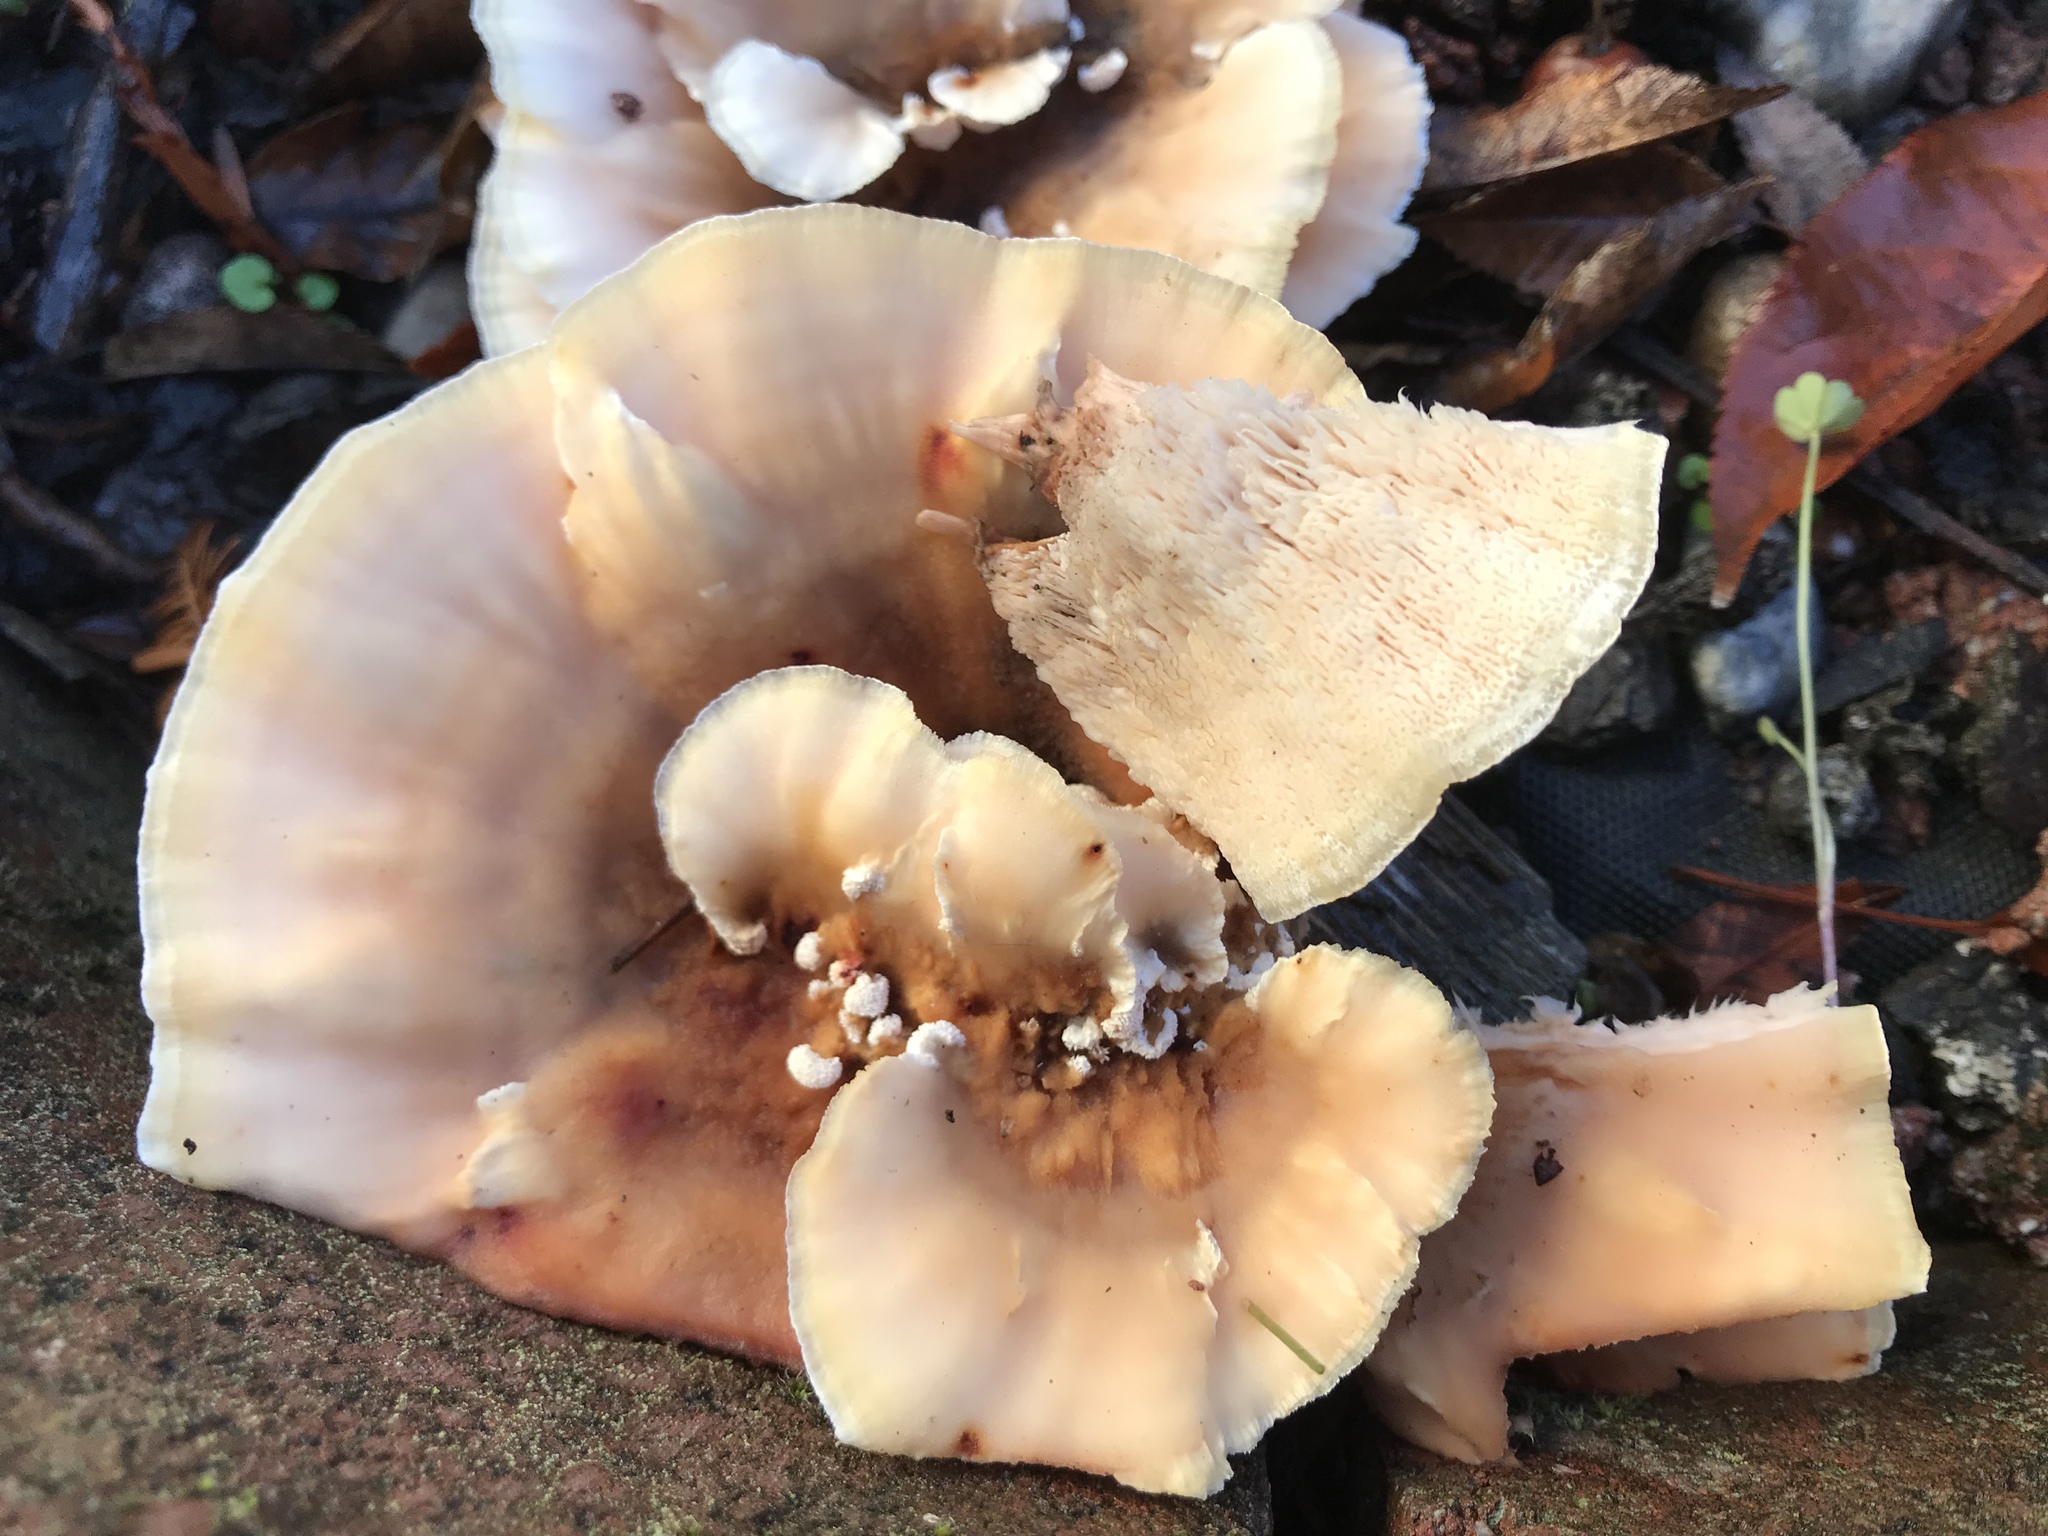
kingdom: Fungi
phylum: Basidiomycota
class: Agaricomycetes
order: Polyporales
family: Podoscyphaceae
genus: Abortiporus
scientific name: Abortiporus biennis
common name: Blushing rosette
